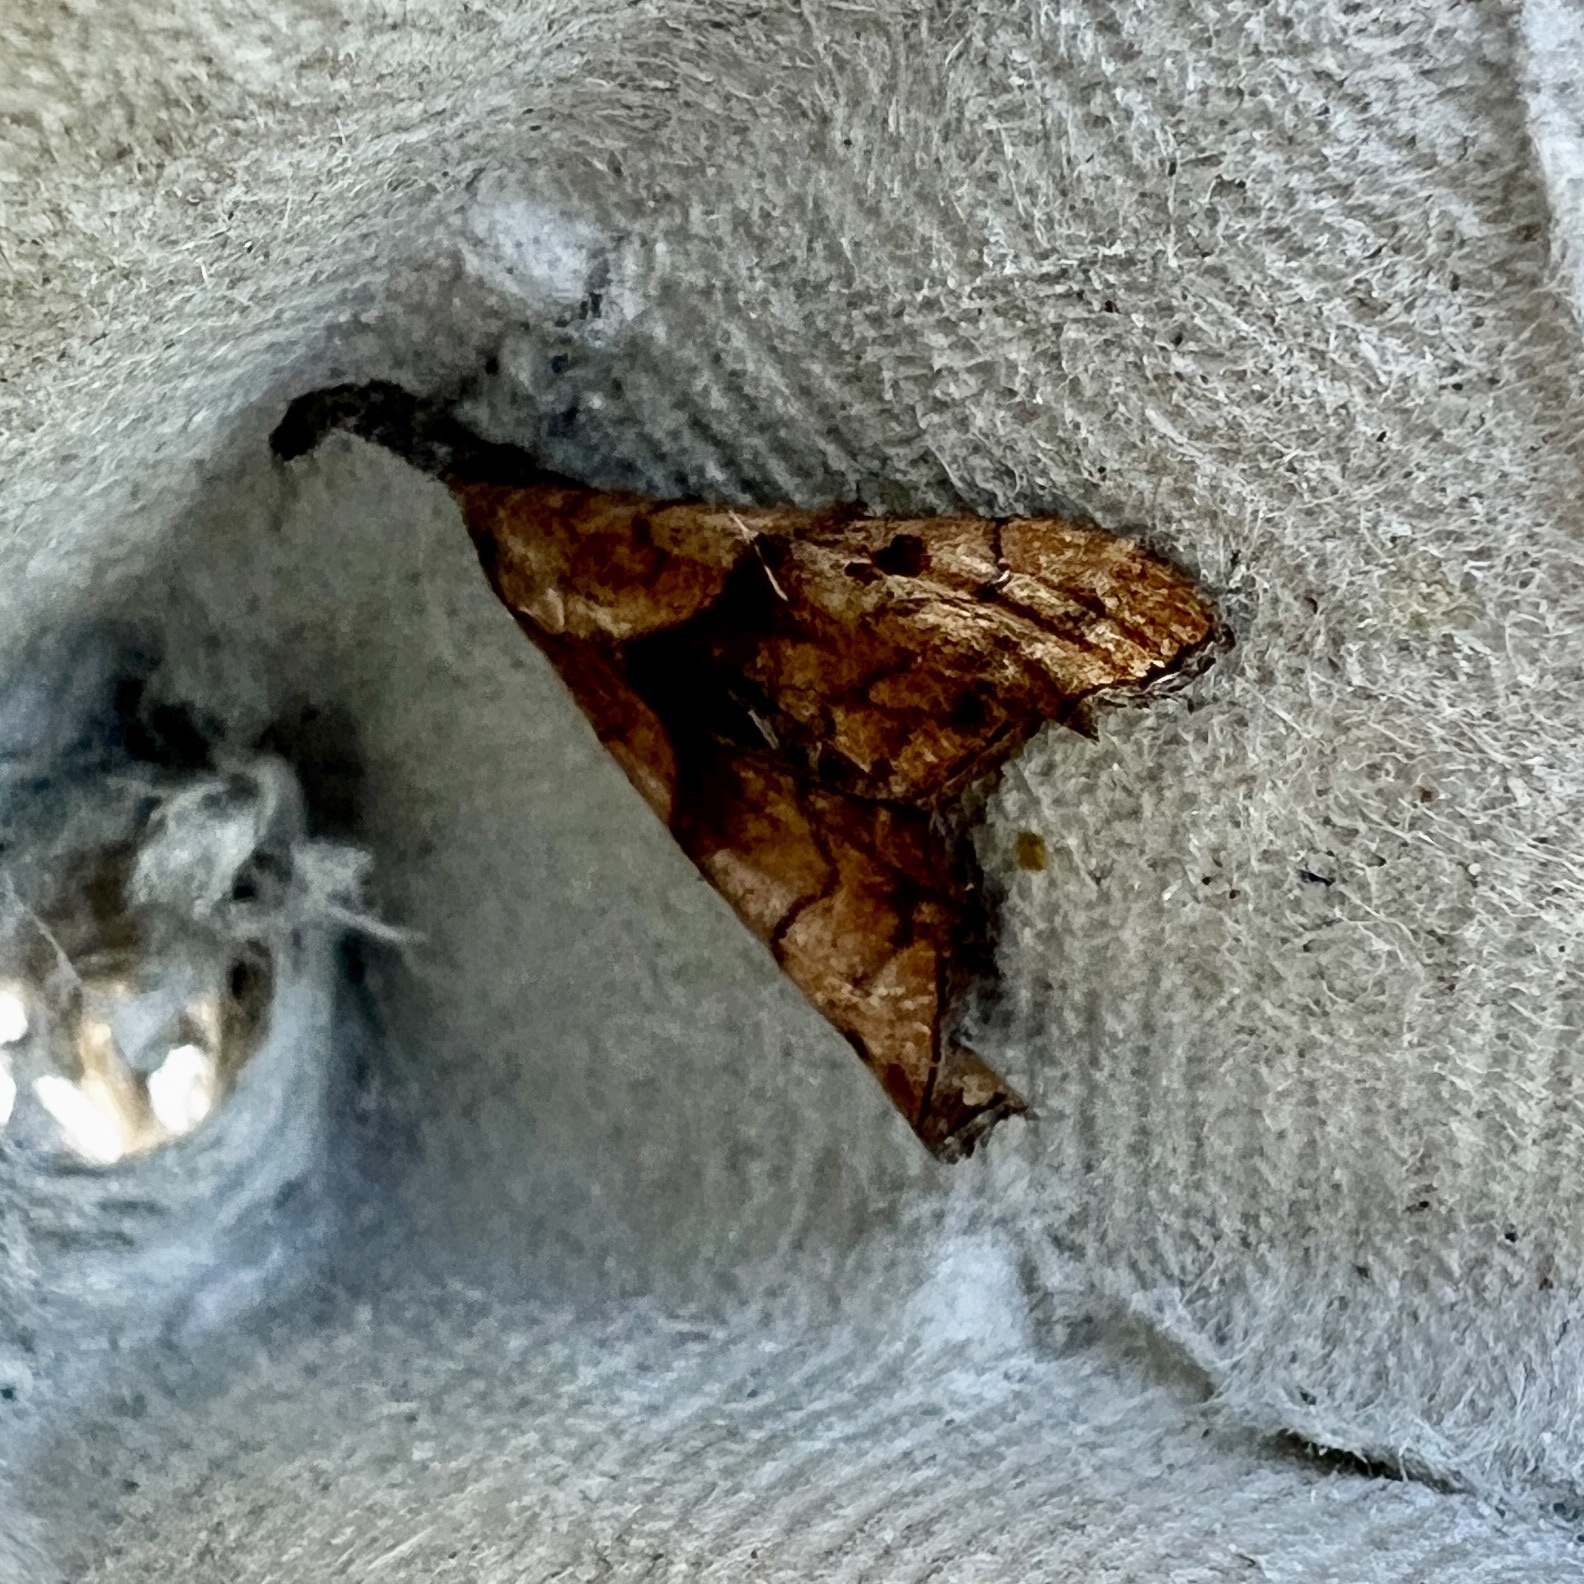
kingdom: Animalia
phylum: Arthropoda
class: Insecta
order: Lepidoptera
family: Erebidae
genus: Palthis
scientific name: Palthis angulalis
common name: Dark-spotted palthis moth
